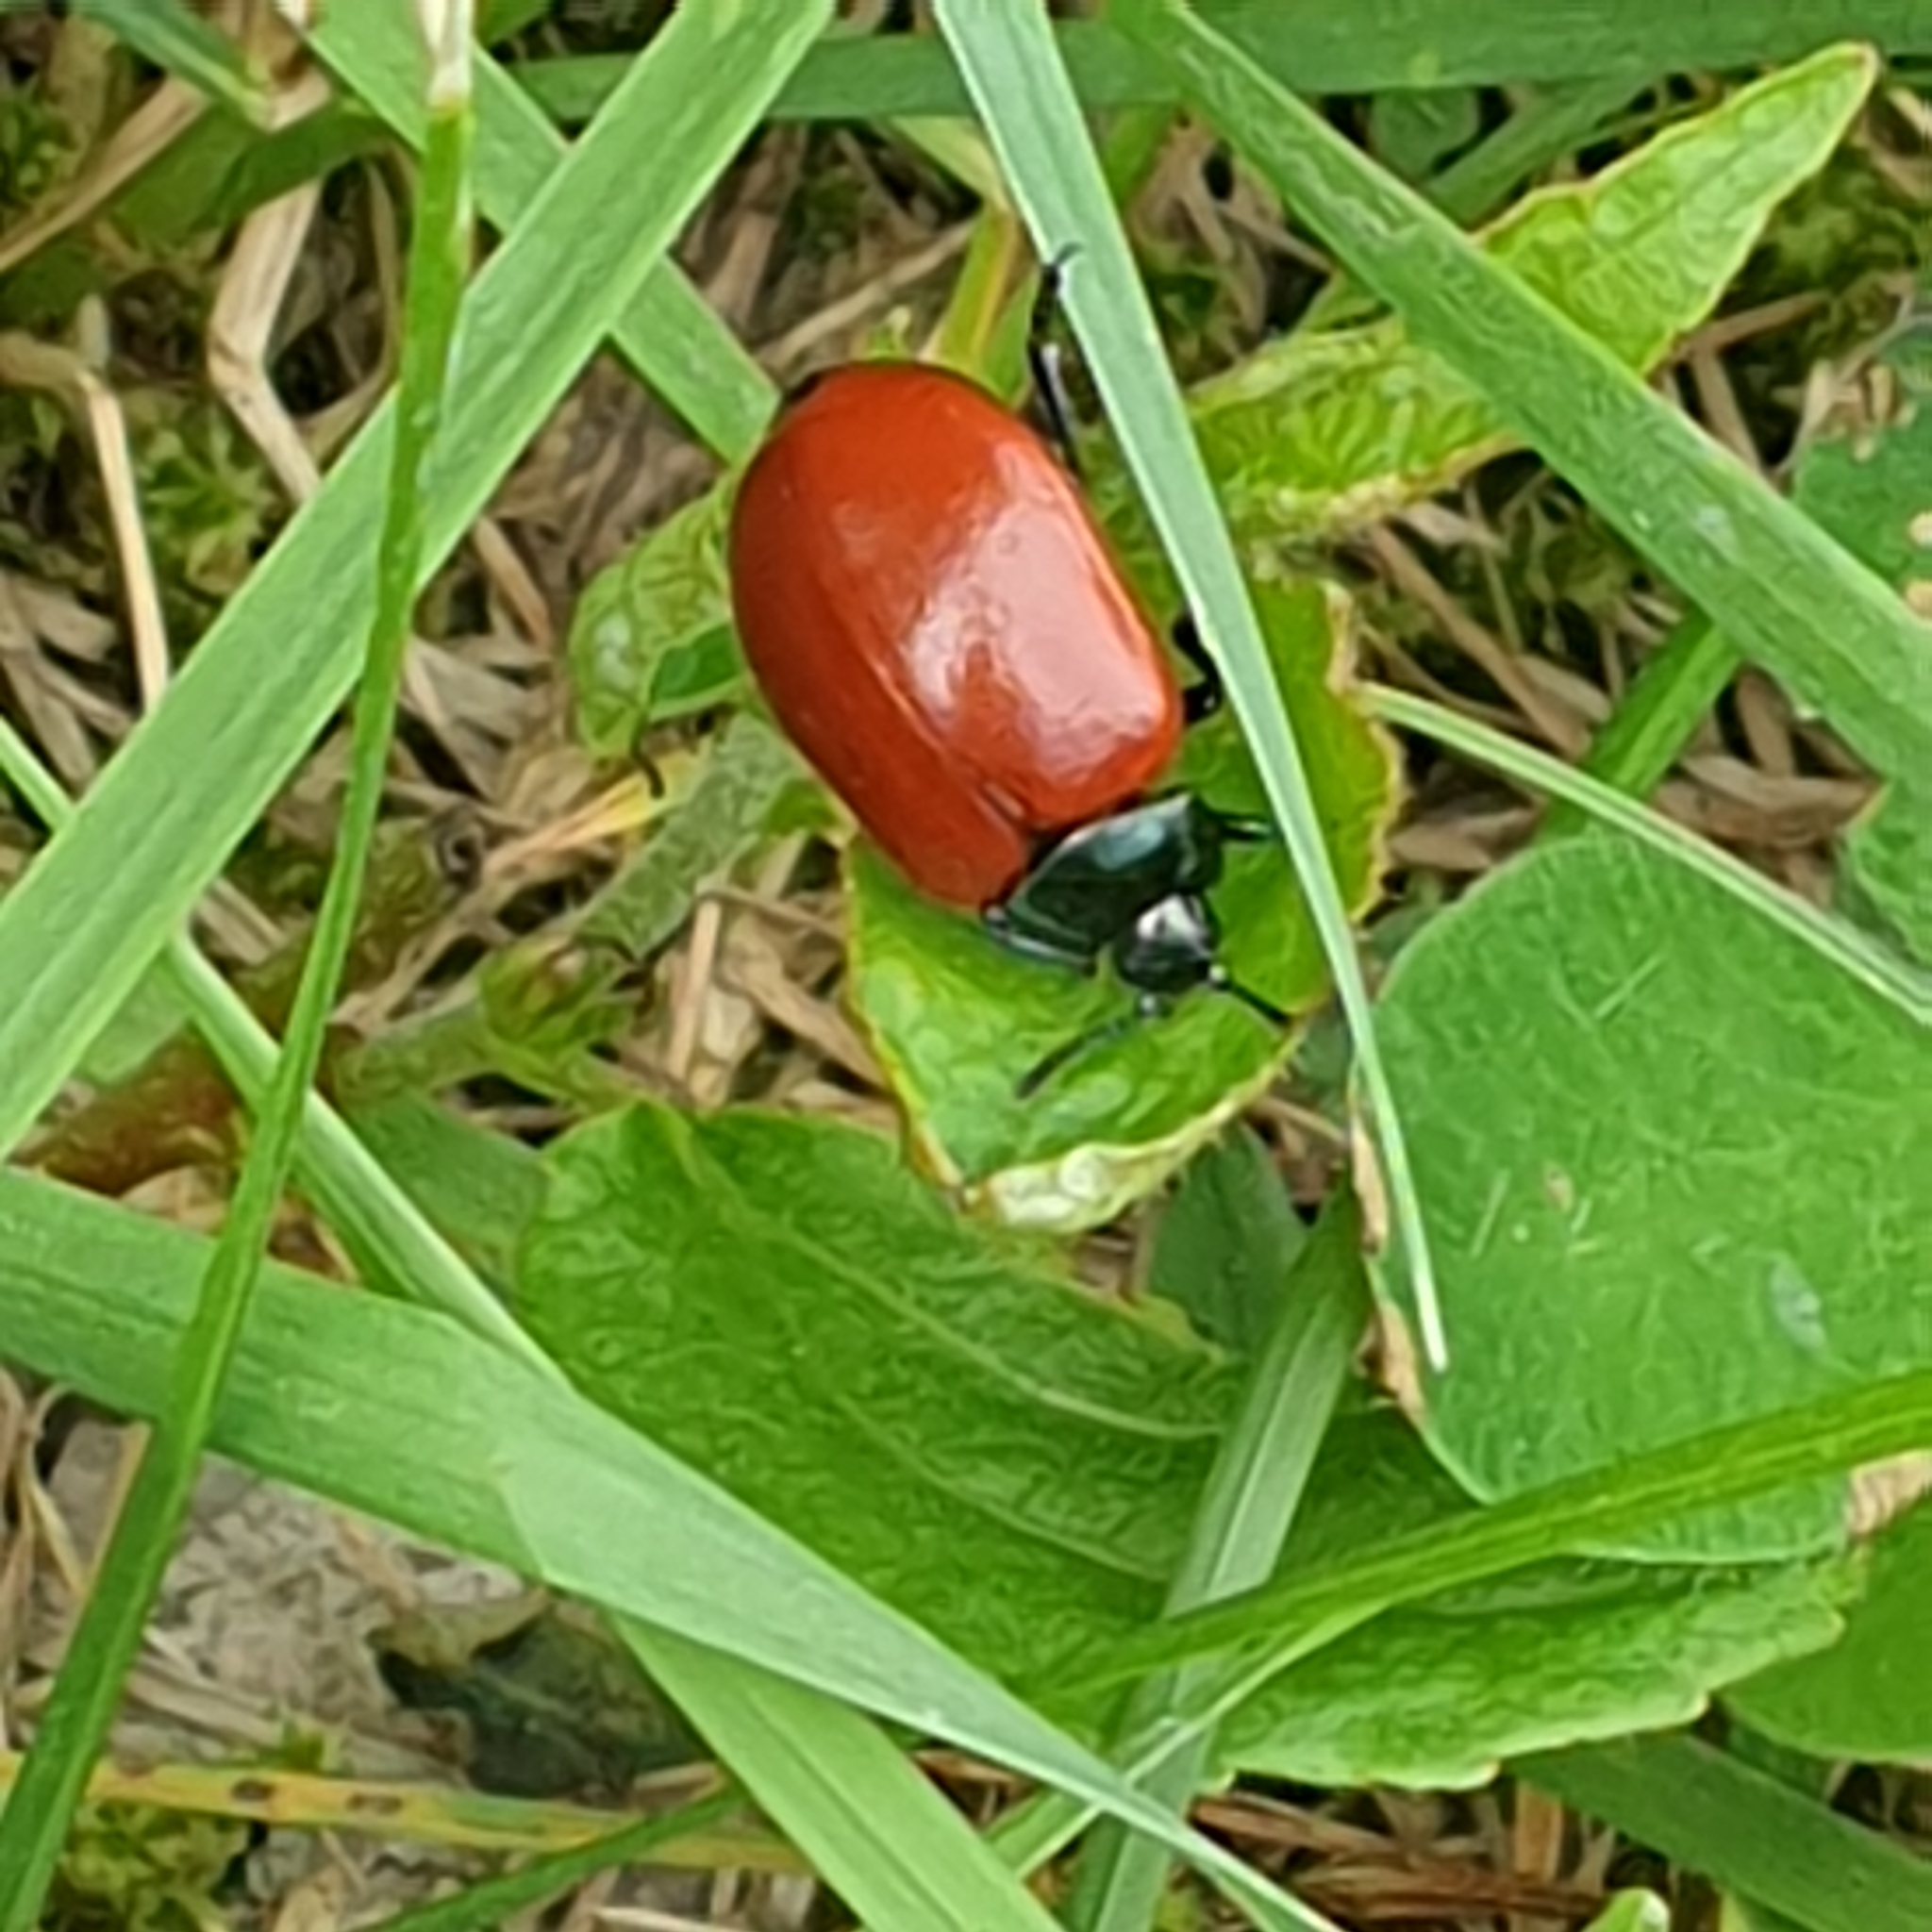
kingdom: Animalia
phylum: Arthropoda
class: Insecta
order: Coleoptera
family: Chrysomelidae
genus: Chrysomela
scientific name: Chrysomela populi
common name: Red poplar leaf beetle
